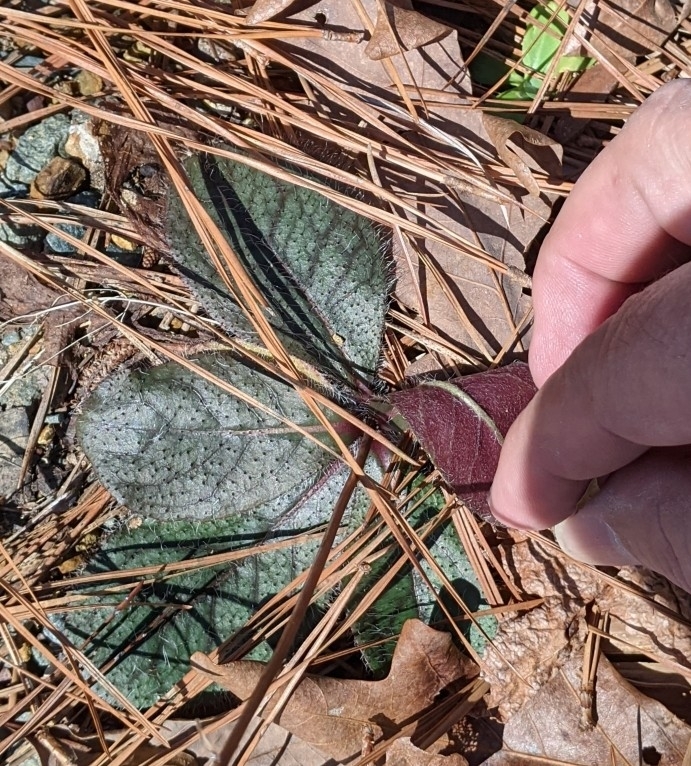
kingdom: Plantae
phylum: Tracheophyta
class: Magnoliopsida
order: Asterales
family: Asteraceae
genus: Hieracium
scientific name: Hieracium venosum
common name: Rattlesnake hawkweed
